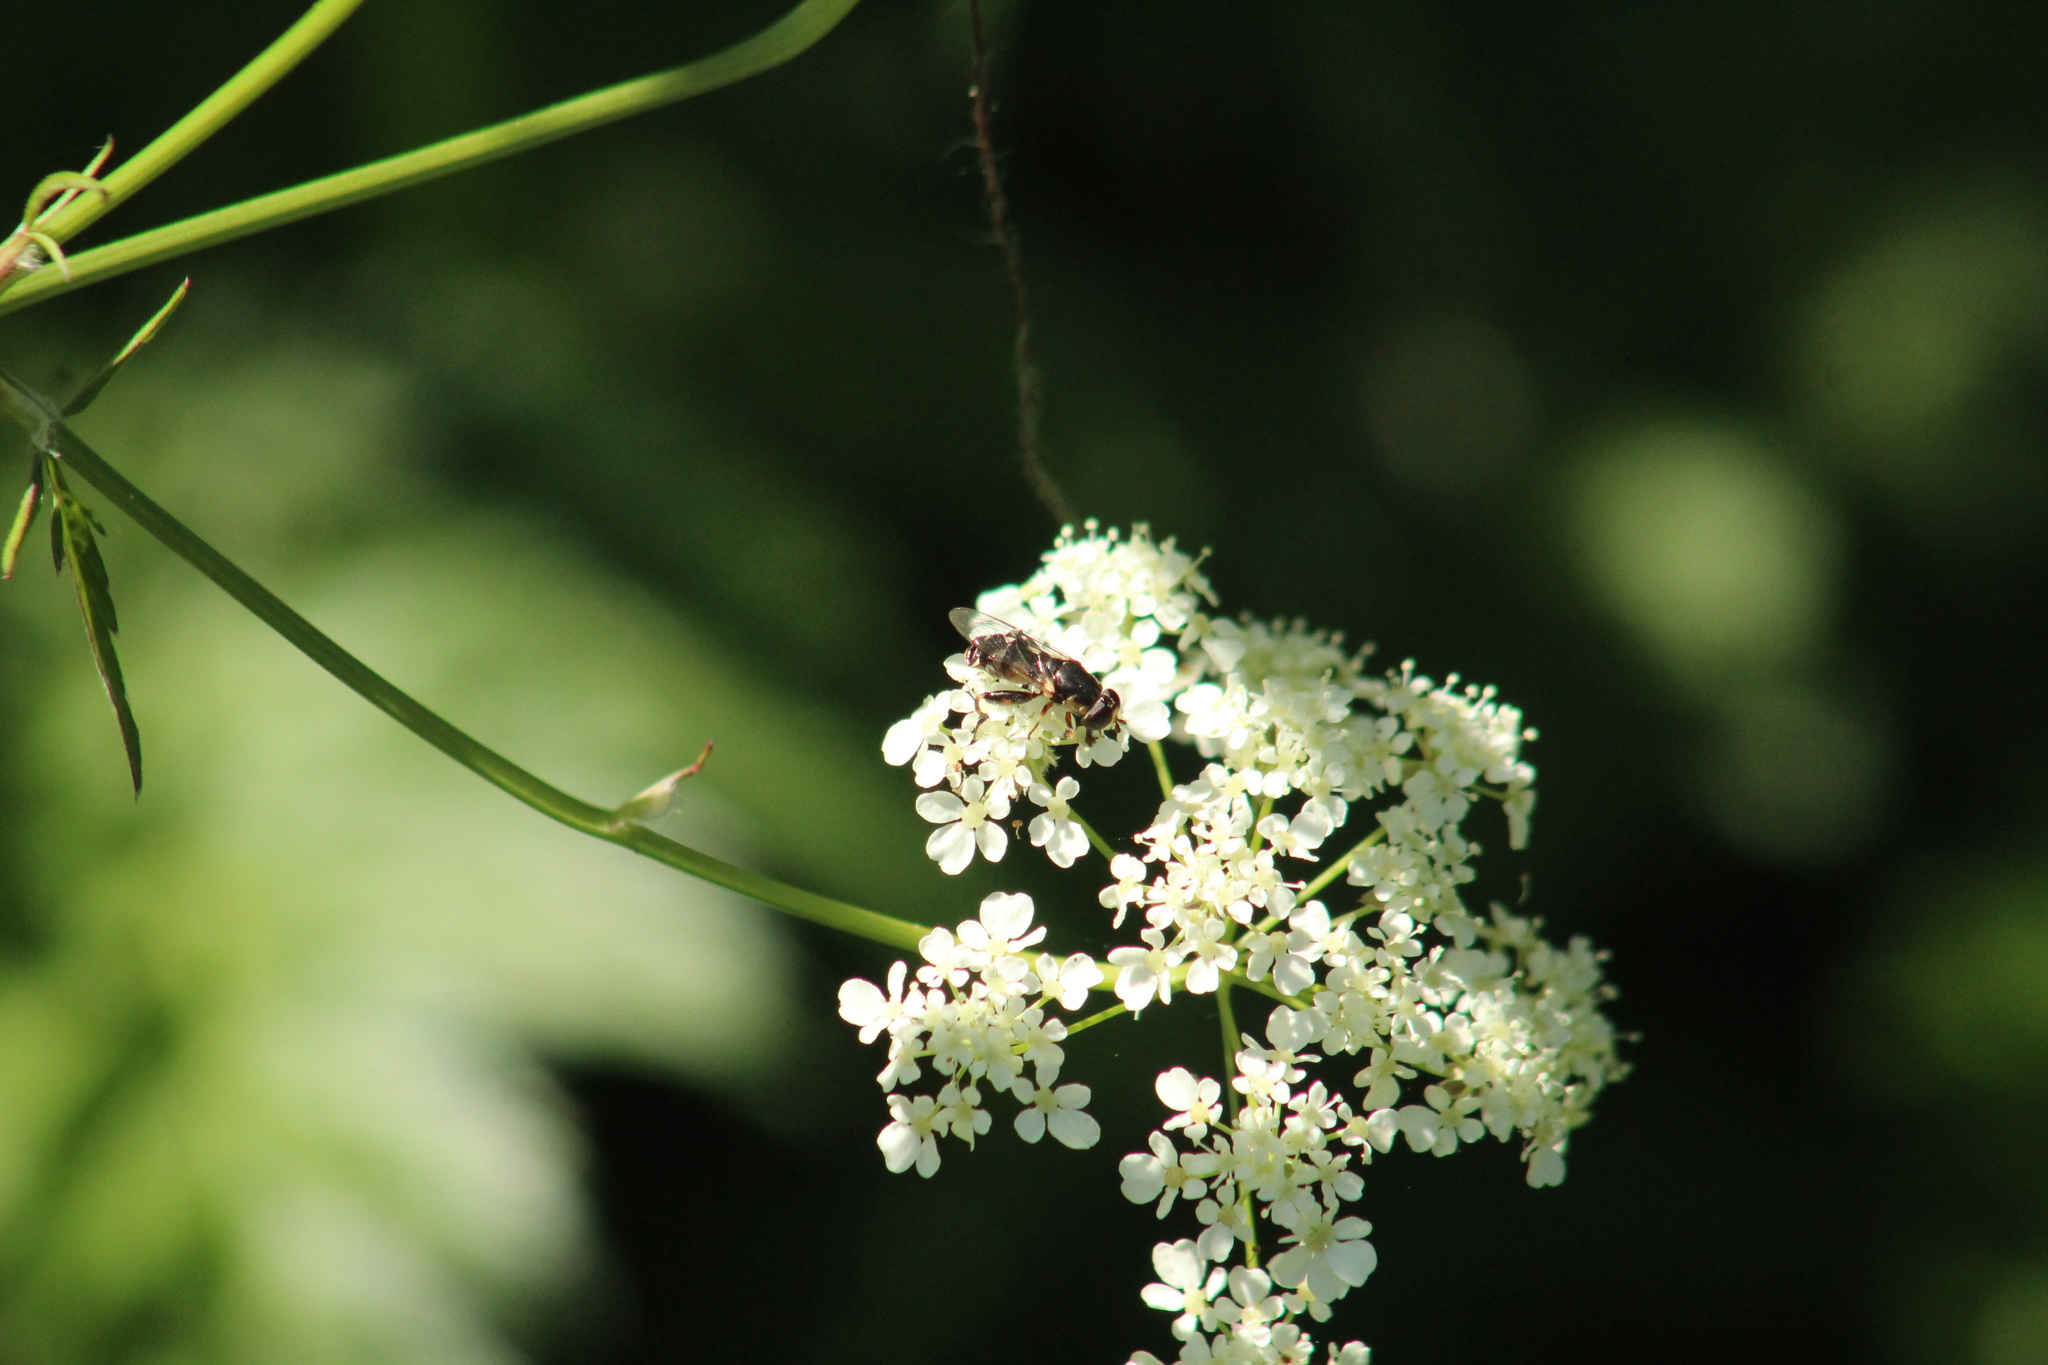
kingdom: Animalia
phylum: Arthropoda
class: Insecta
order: Diptera
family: Syrphidae
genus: Syritta
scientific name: Syritta pipiens
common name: Hover fly
